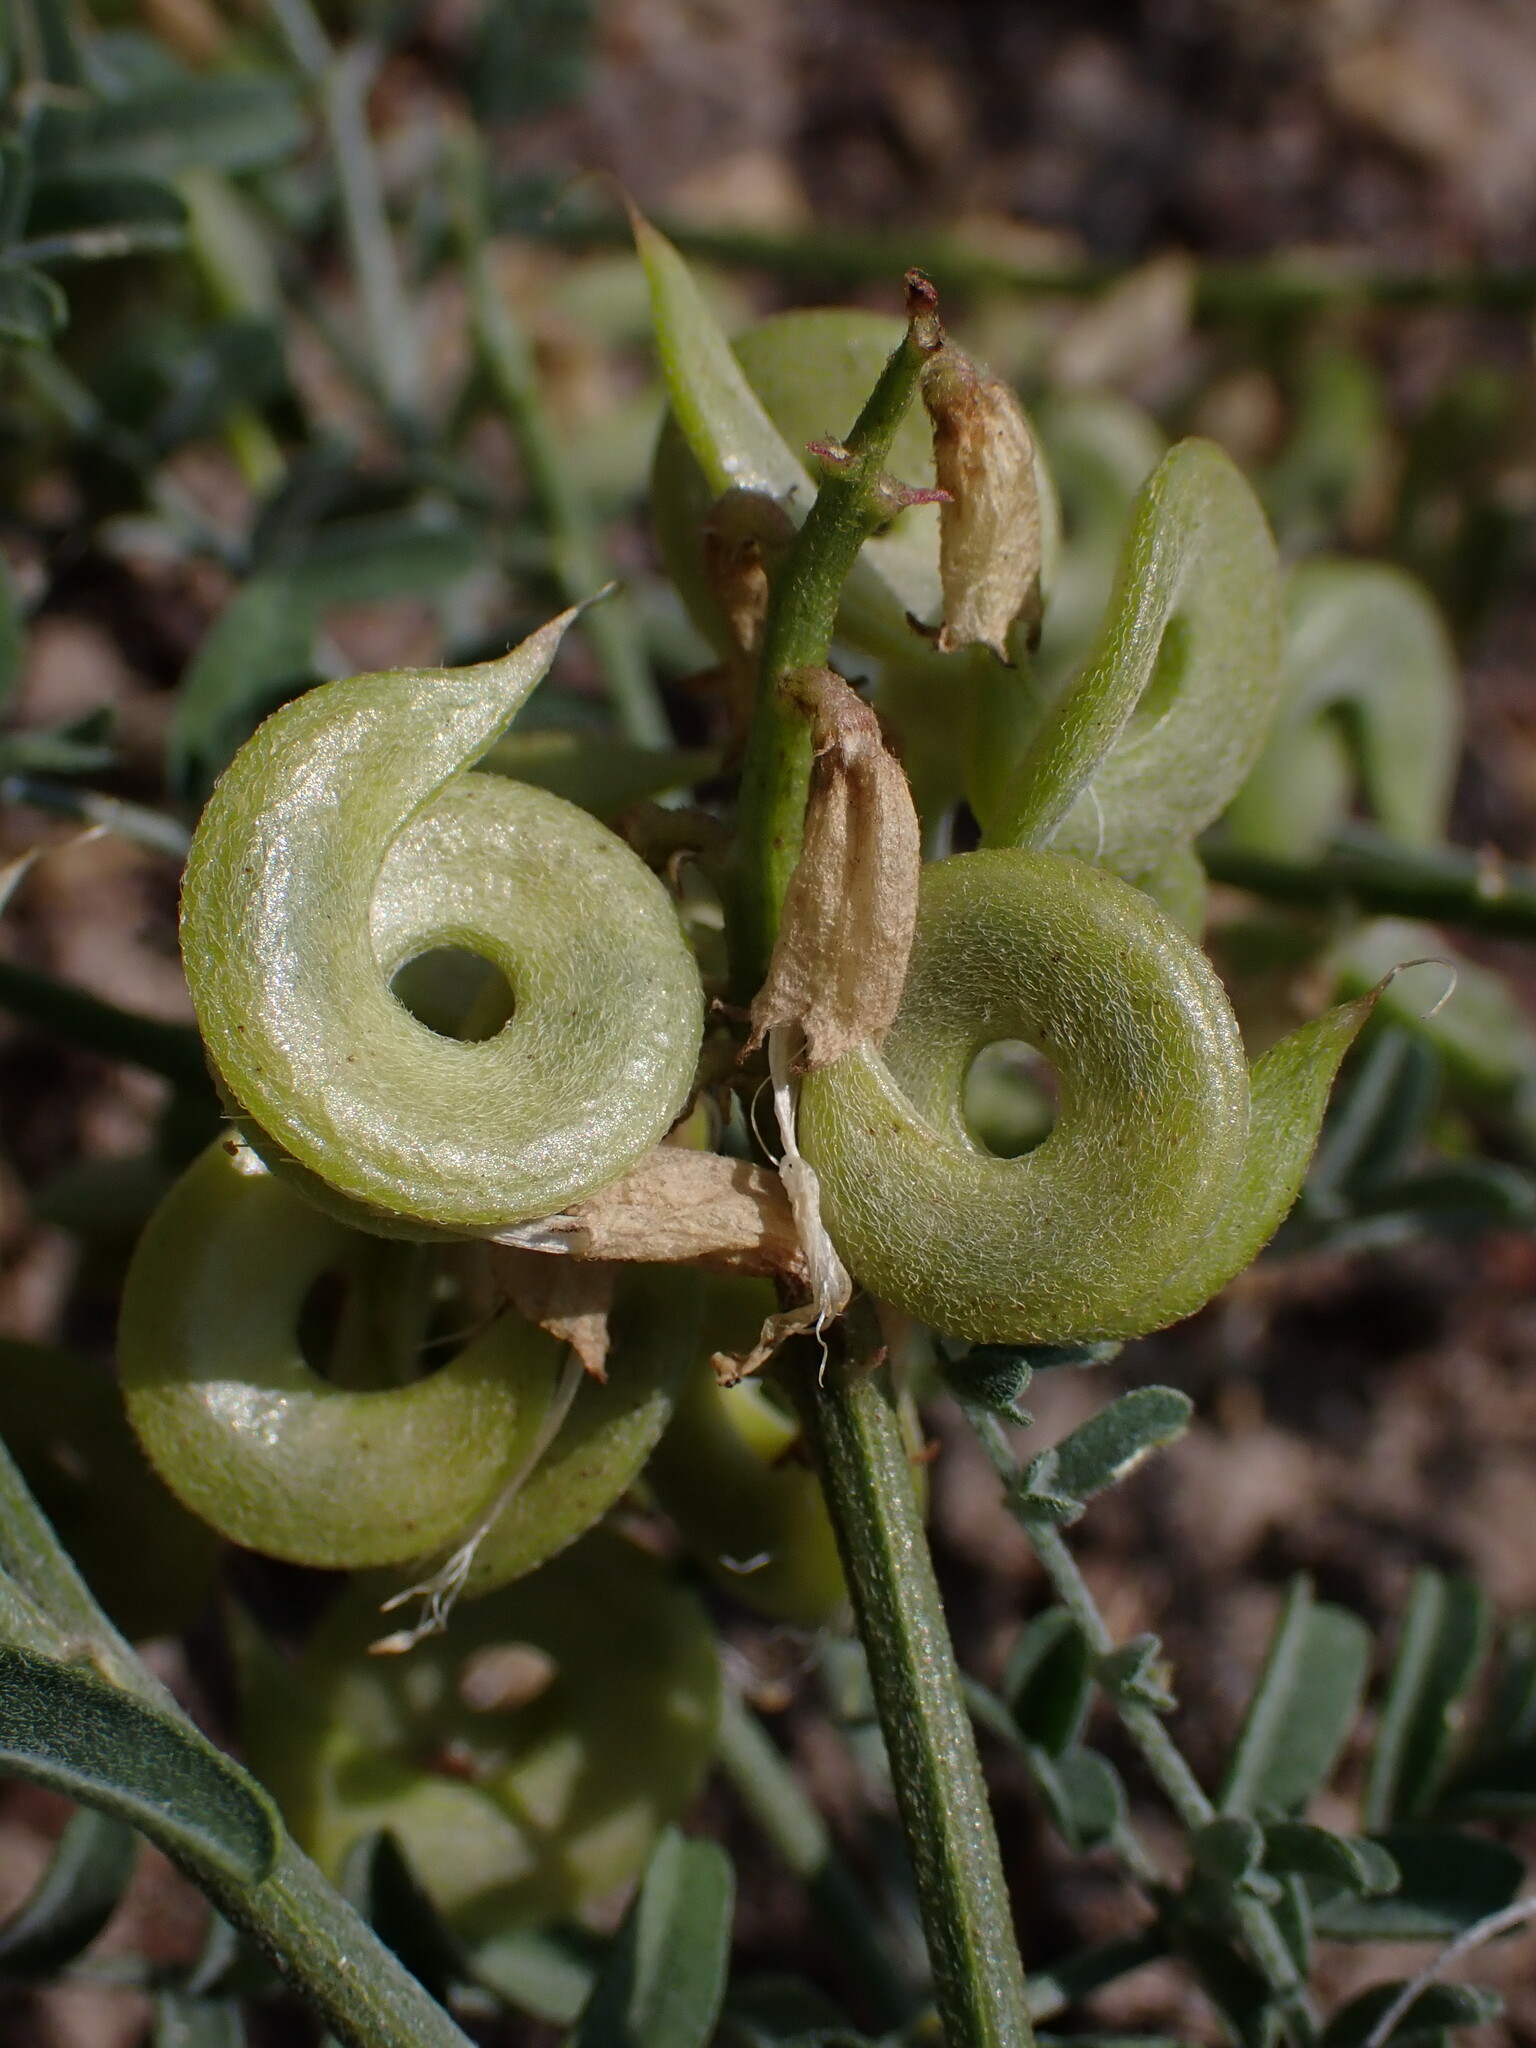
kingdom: Plantae
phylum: Tracheophyta
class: Magnoliopsida
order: Fabales
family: Fabaceae
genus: Astragalus
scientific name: Astragalus speirocarpus
